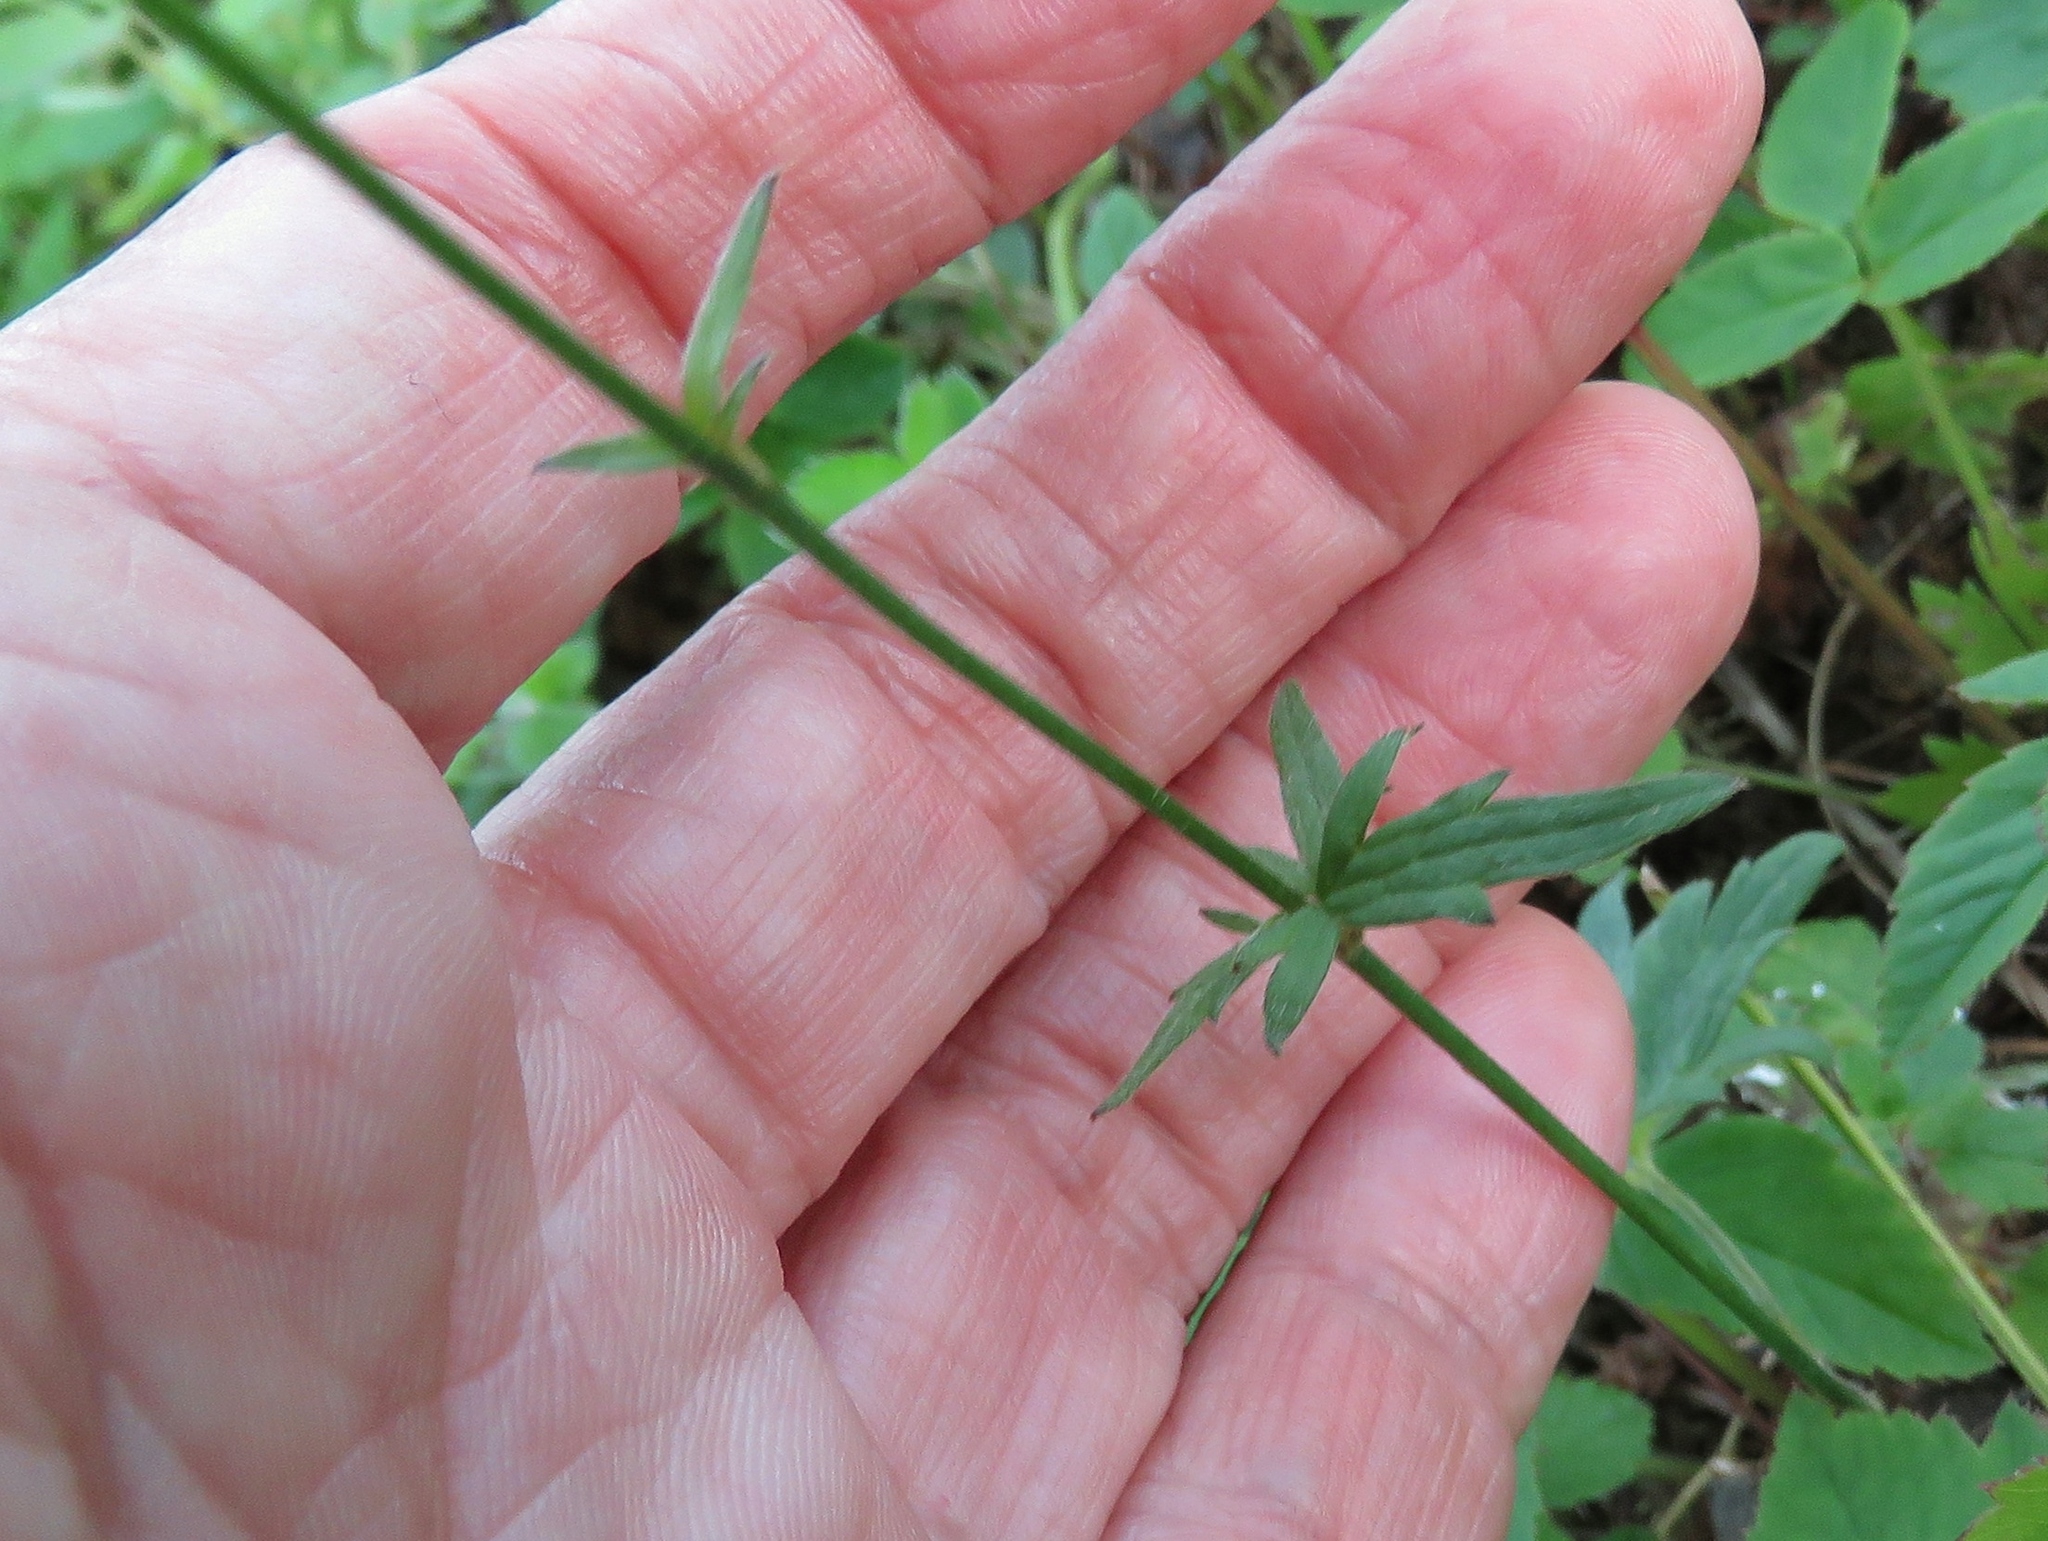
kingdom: Plantae
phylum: Tracheophyta
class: Magnoliopsida
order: Ranunculales
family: Ranunculaceae
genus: Ranunculus
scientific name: Ranunculus acris
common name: Meadow buttercup
